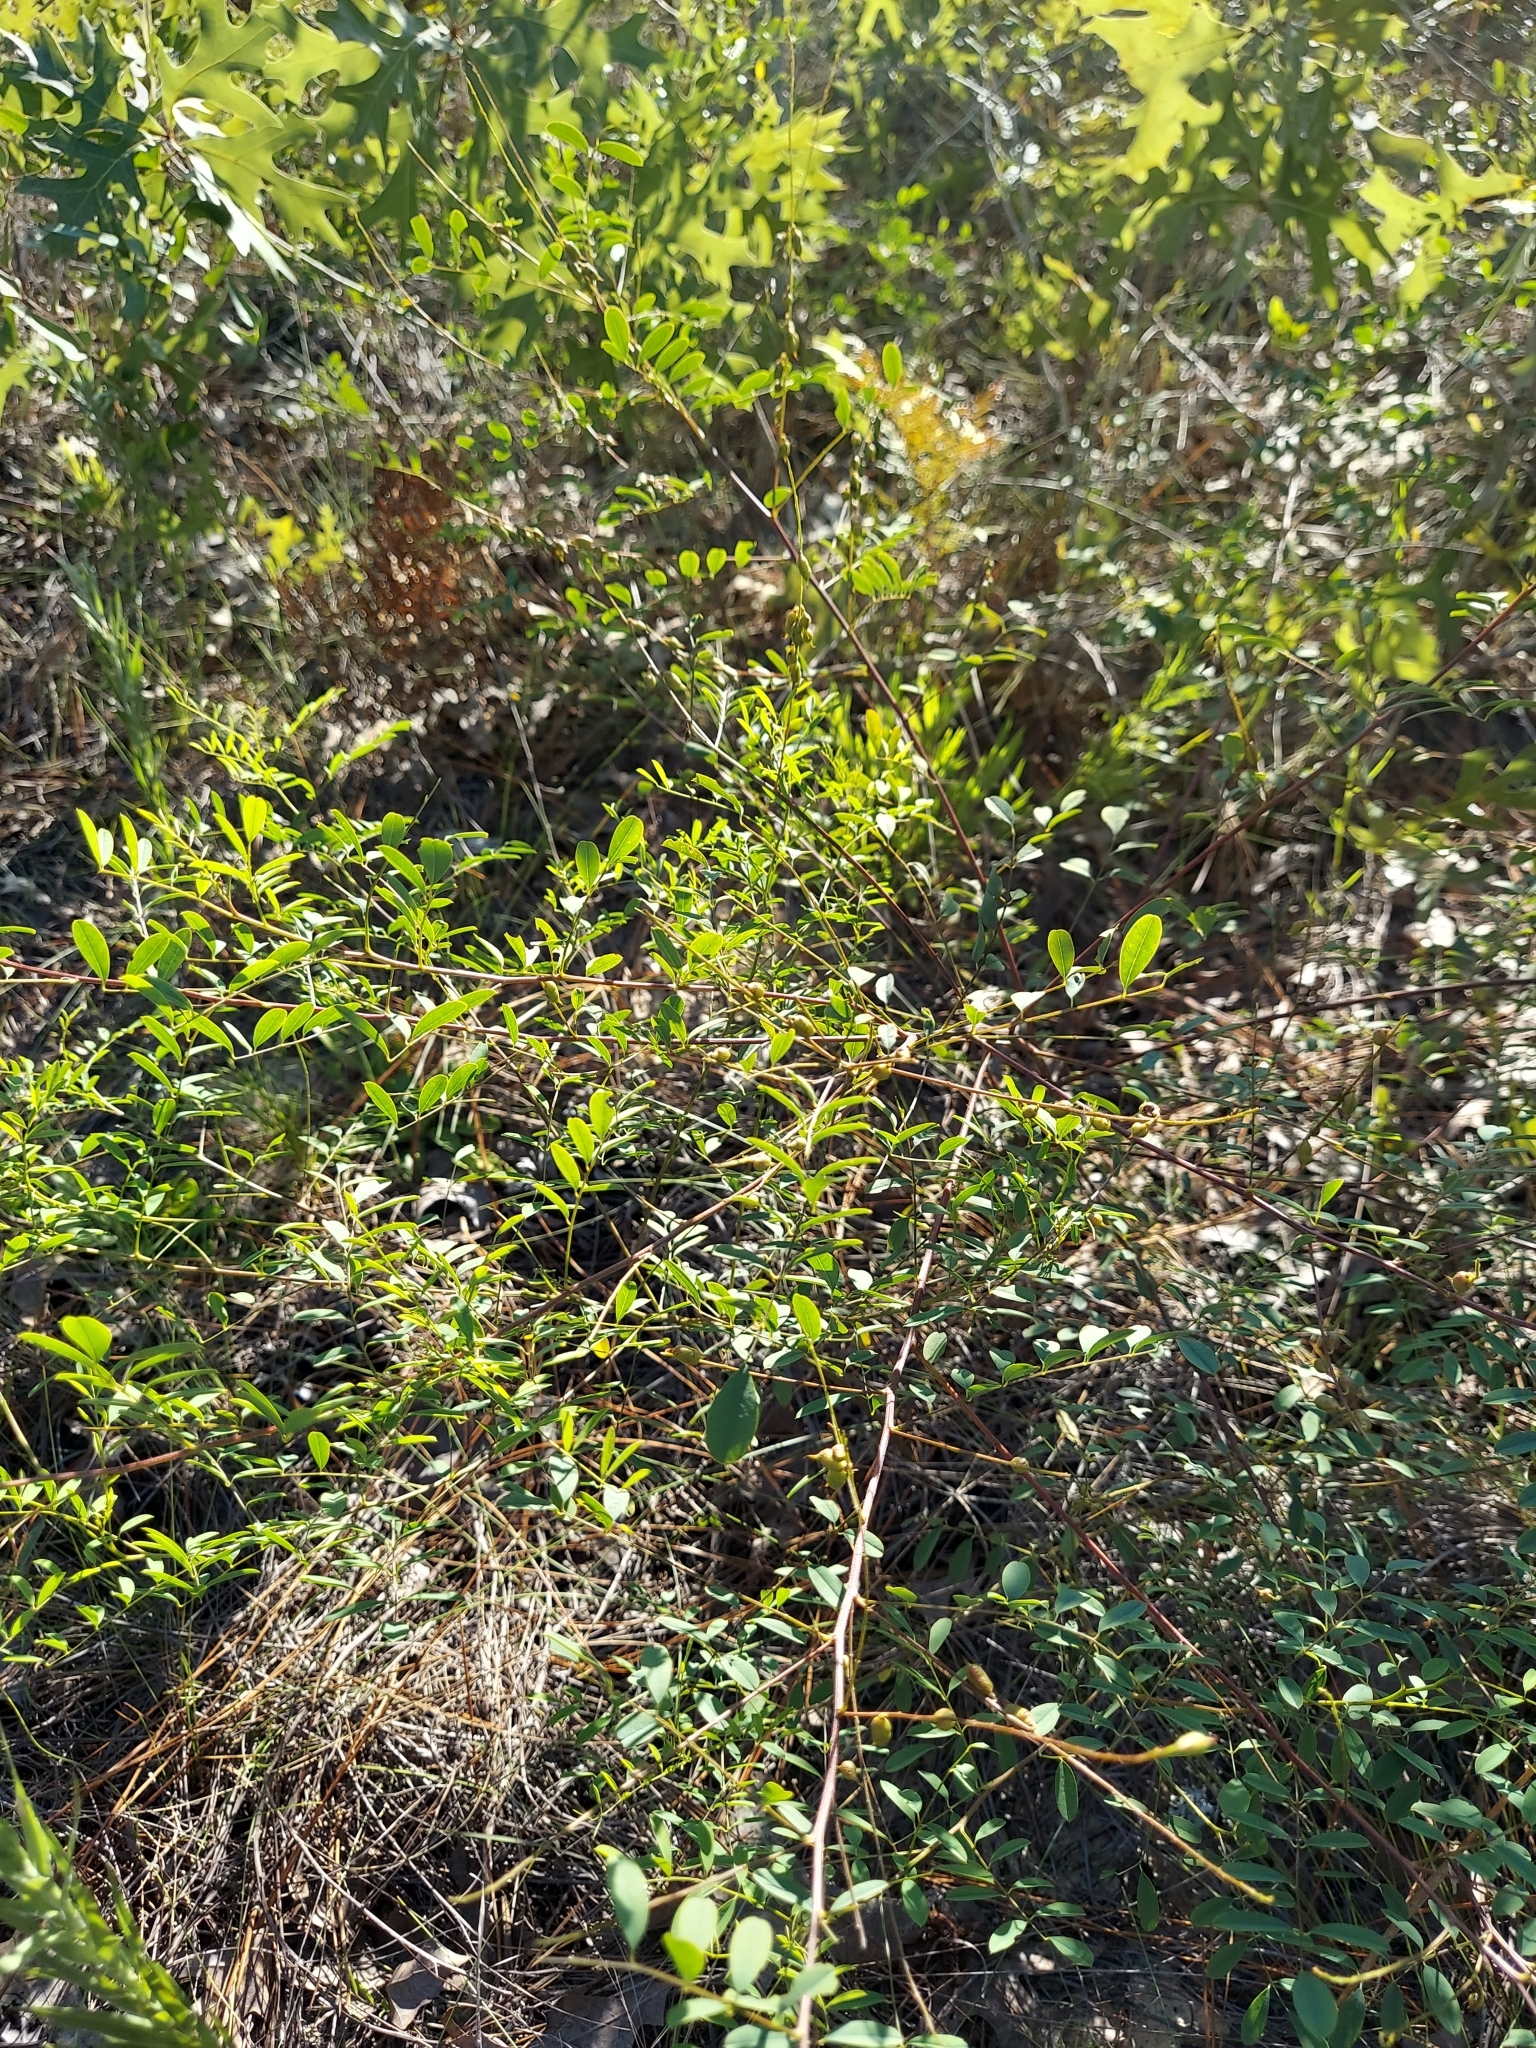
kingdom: Plantae
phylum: Tracheophyta
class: Magnoliopsida
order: Fabales
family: Fabaceae
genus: Indigofera
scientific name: Indigofera caroliniana
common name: Wild indigo
